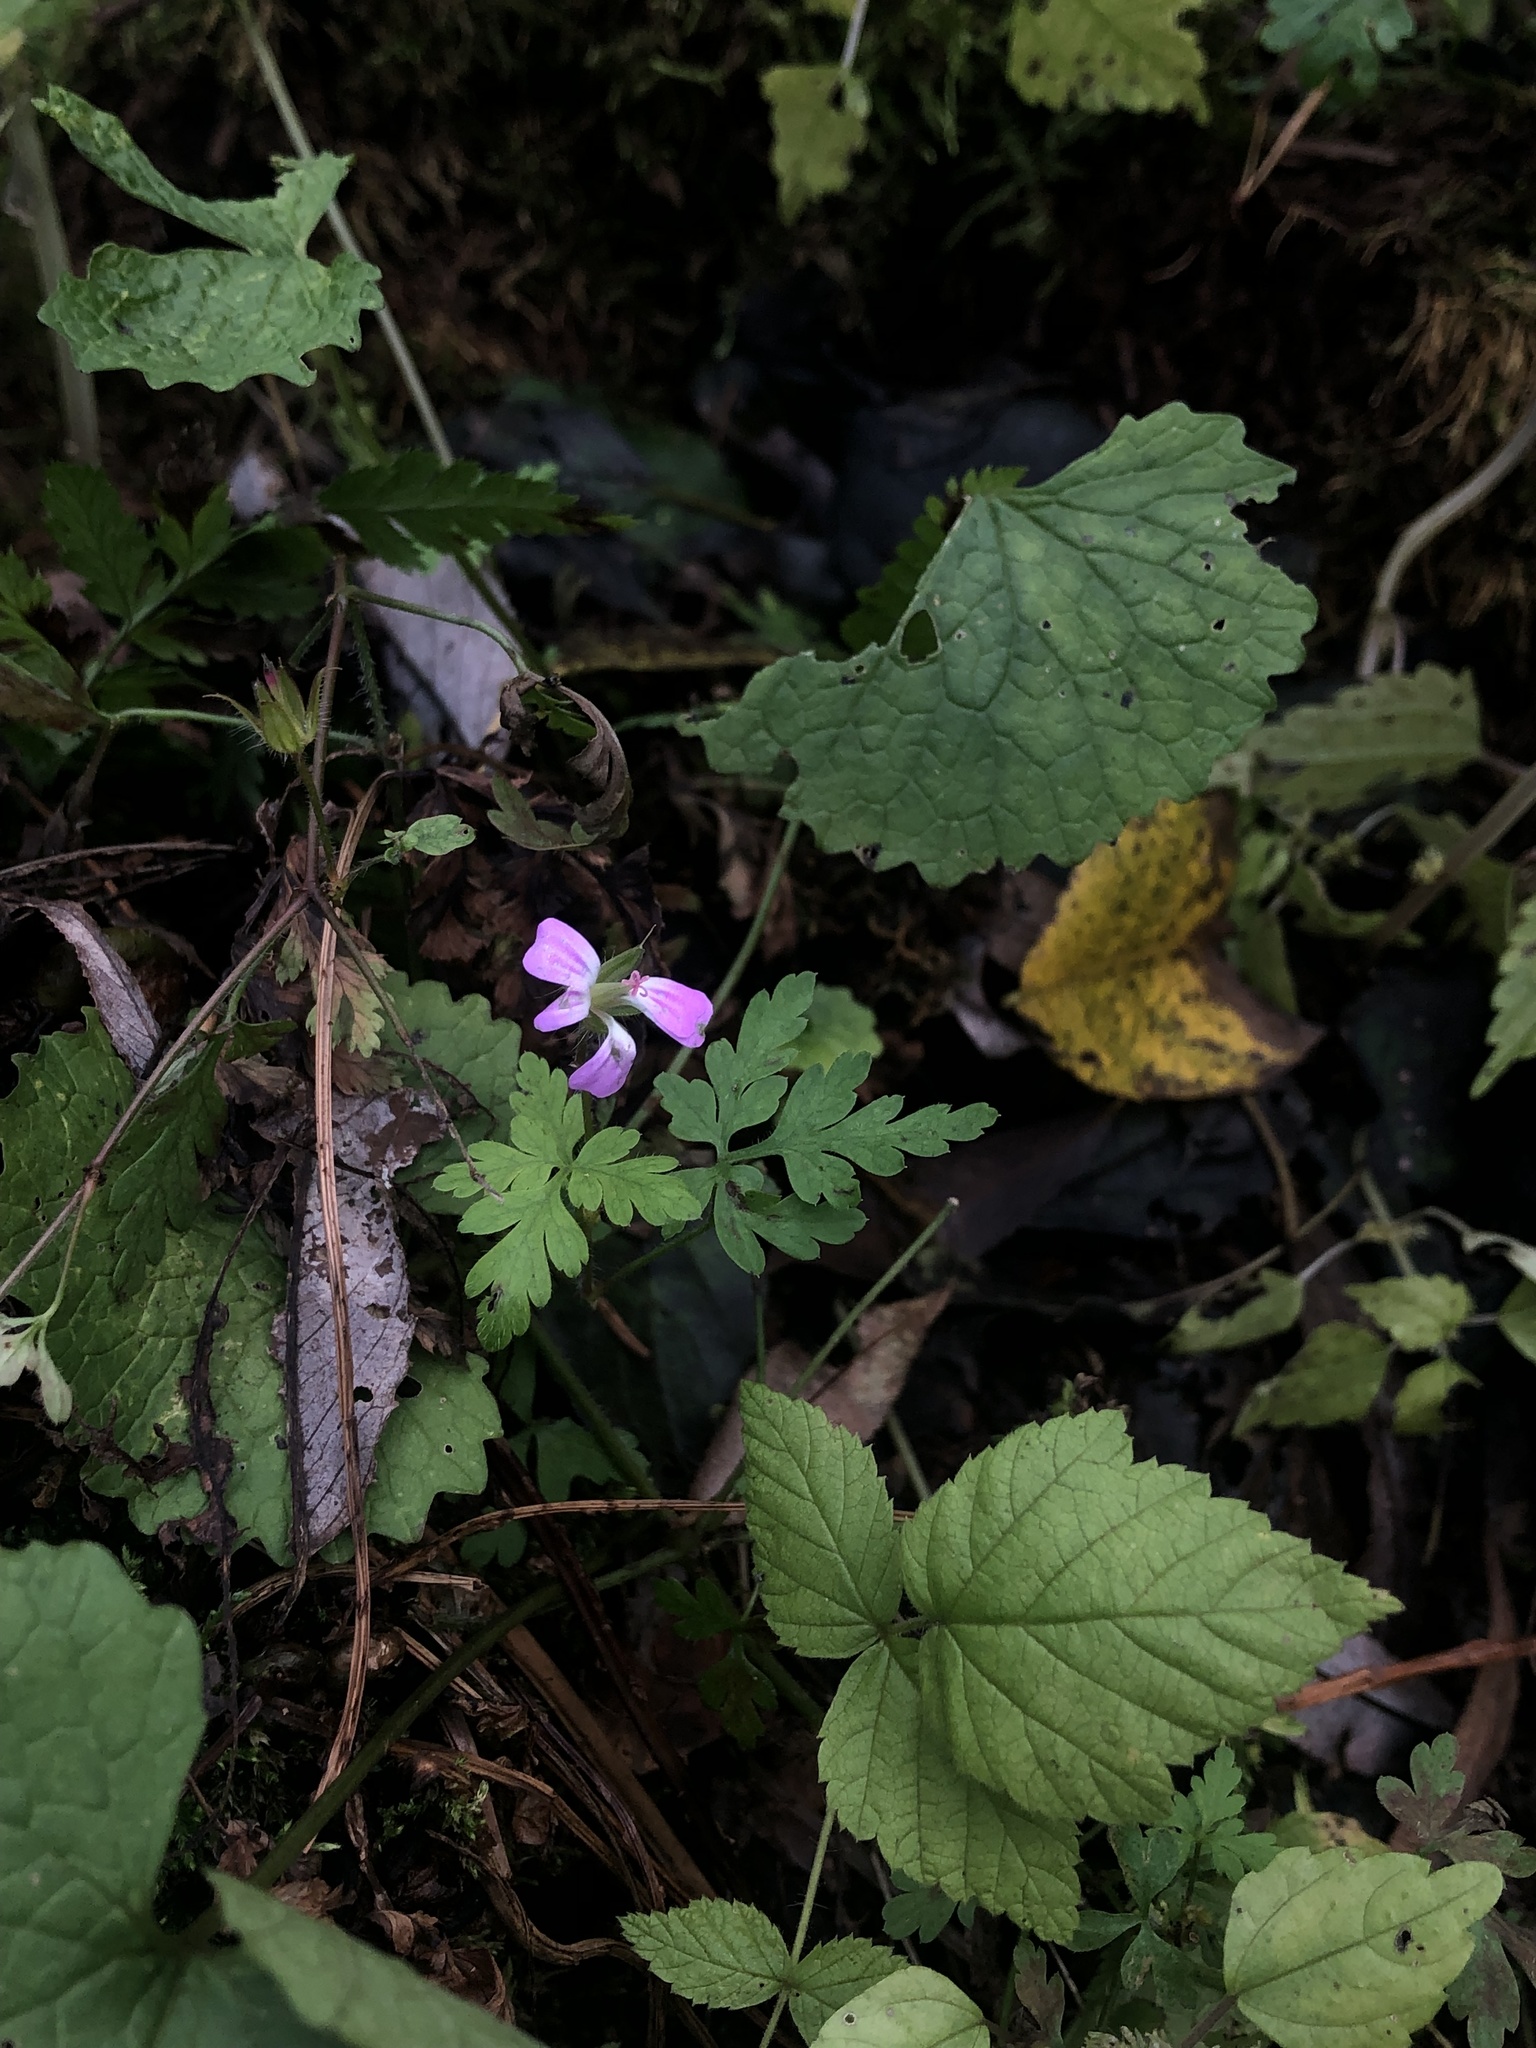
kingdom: Plantae
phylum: Tracheophyta
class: Magnoliopsida
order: Geraniales
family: Geraniaceae
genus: Geranium
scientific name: Geranium robertianum
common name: Herb-robert
